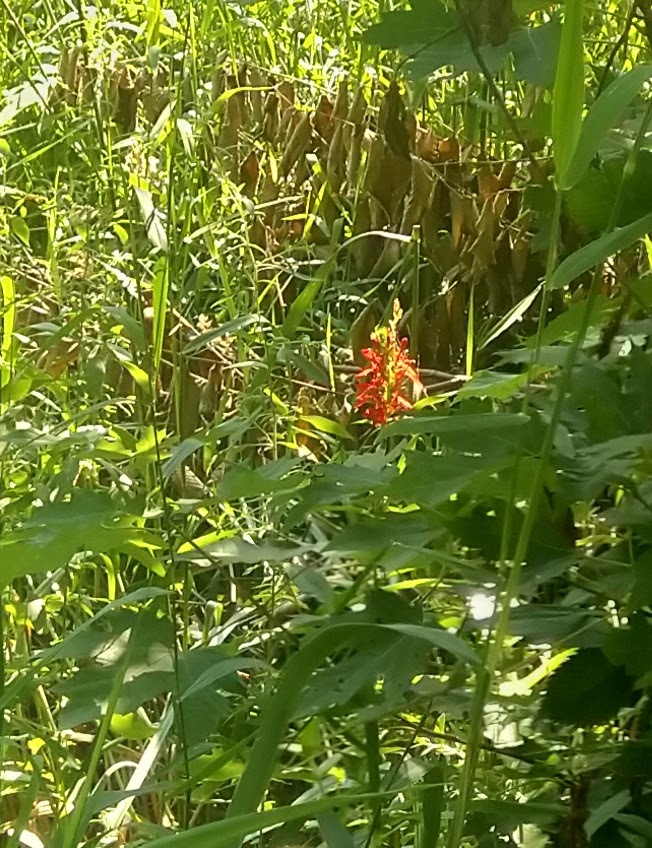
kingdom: Plantae
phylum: Tracheophyta
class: Magnoliopsida
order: Asterales
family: Campanulaceae
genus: Lobelia
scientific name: Lobelia cardinalis
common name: Cardinal flower
